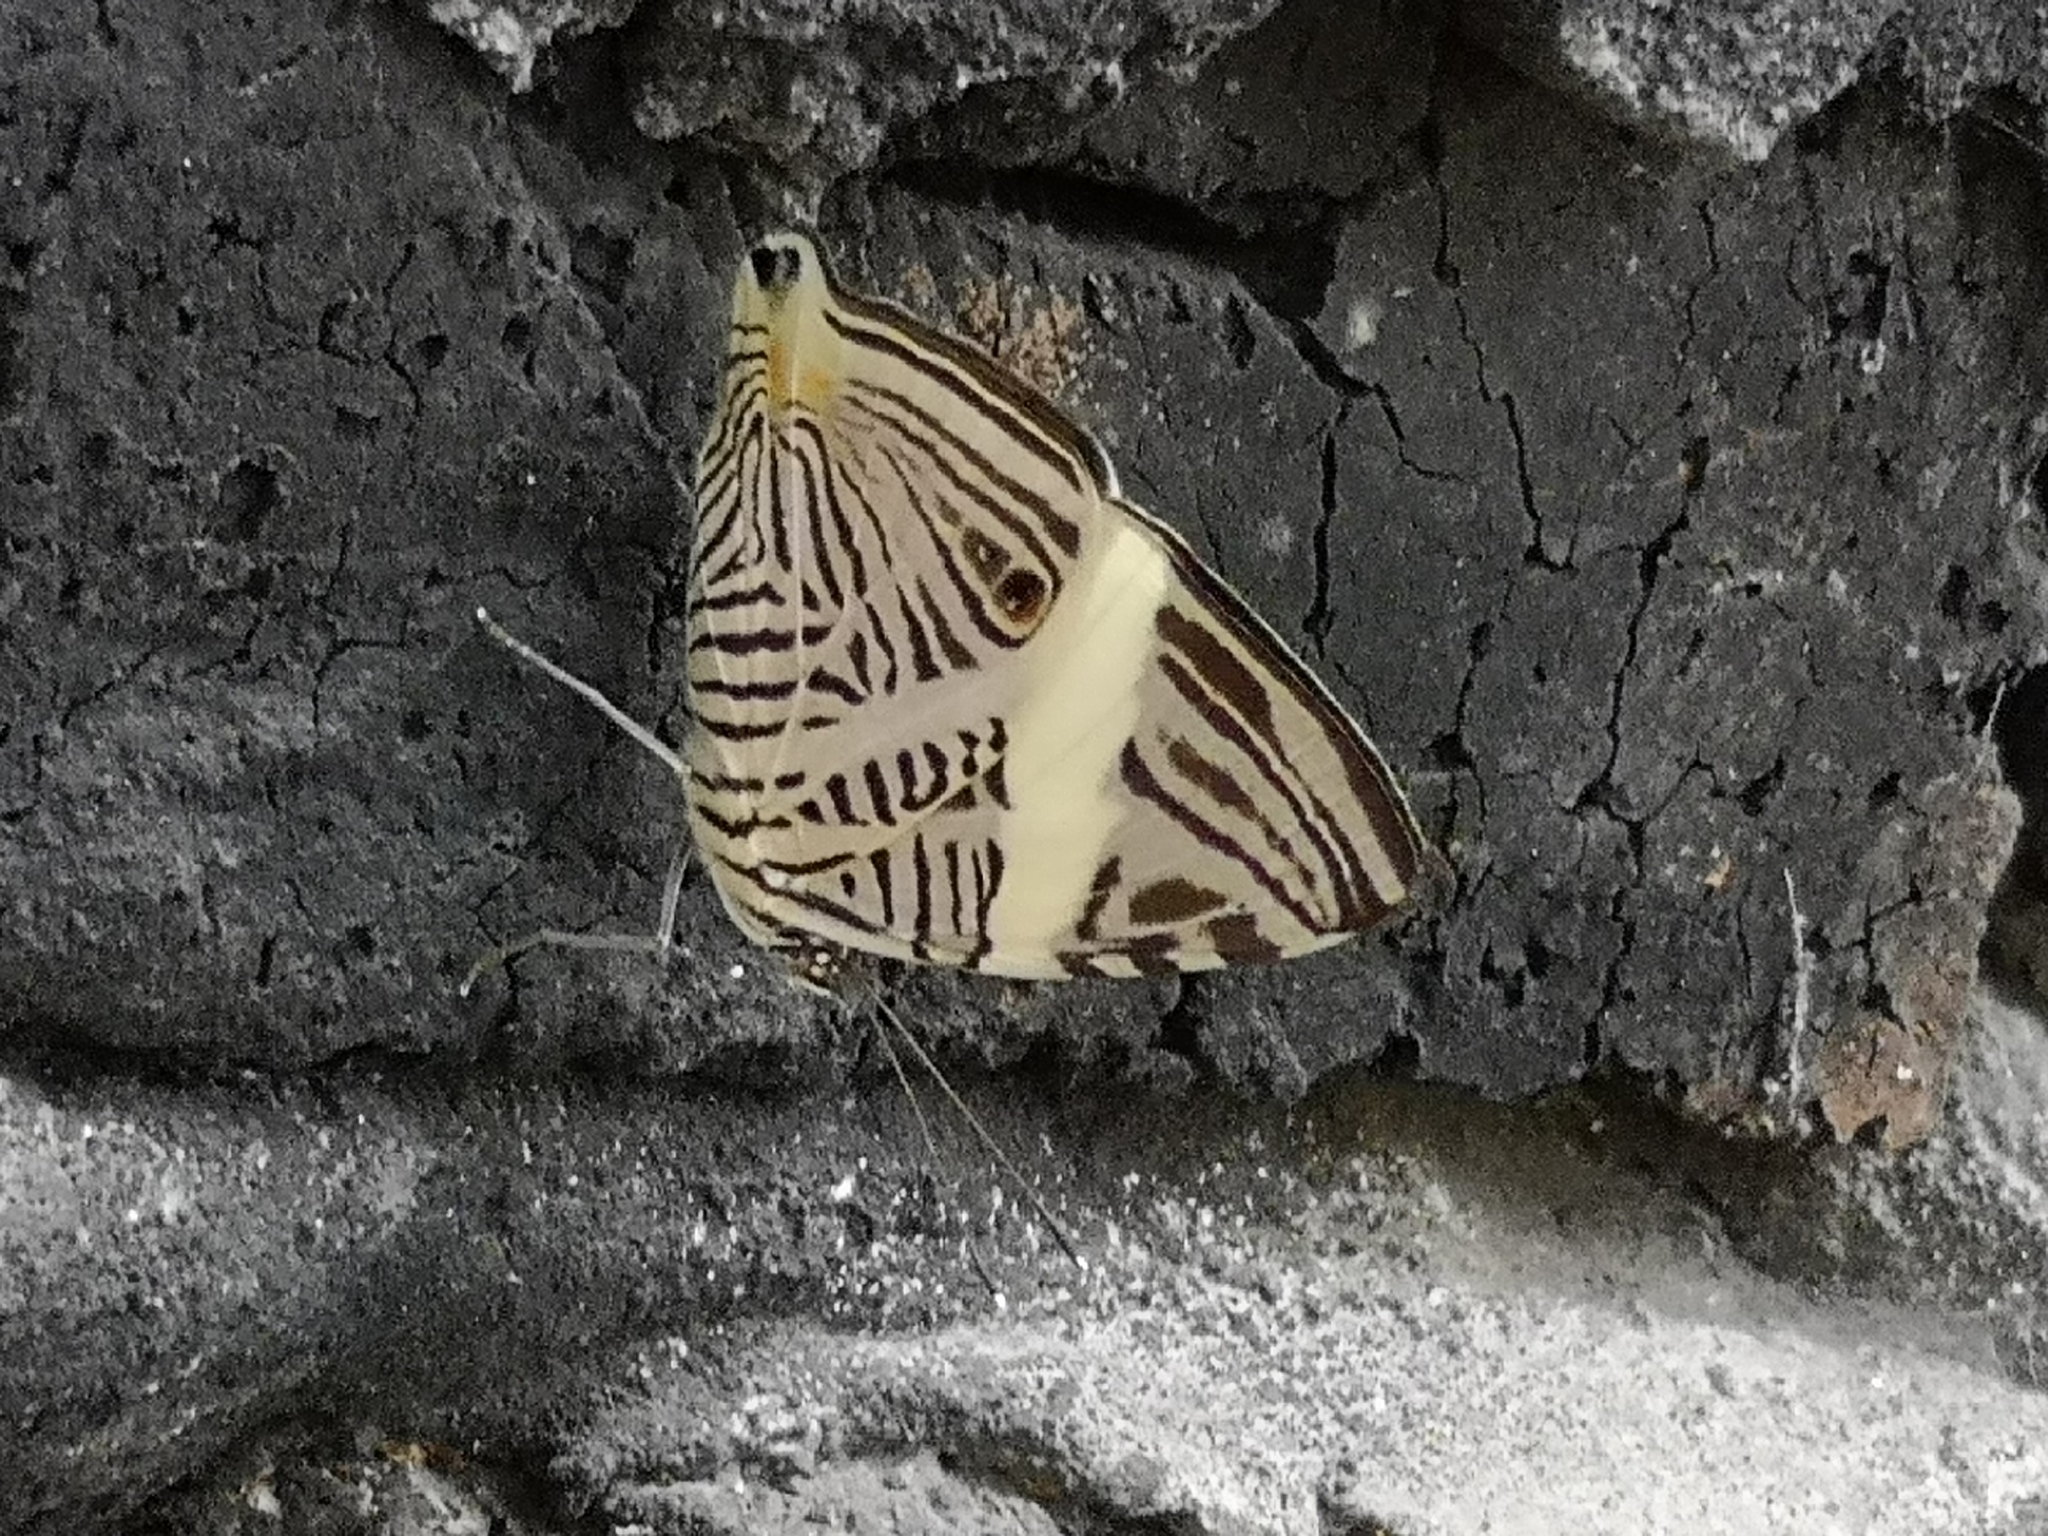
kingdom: Animalia
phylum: Arthropoda
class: Insecta
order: Lepidoptera
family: Nymphalidae
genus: Colobura
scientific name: Colobura dirce
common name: Dirce beauty
